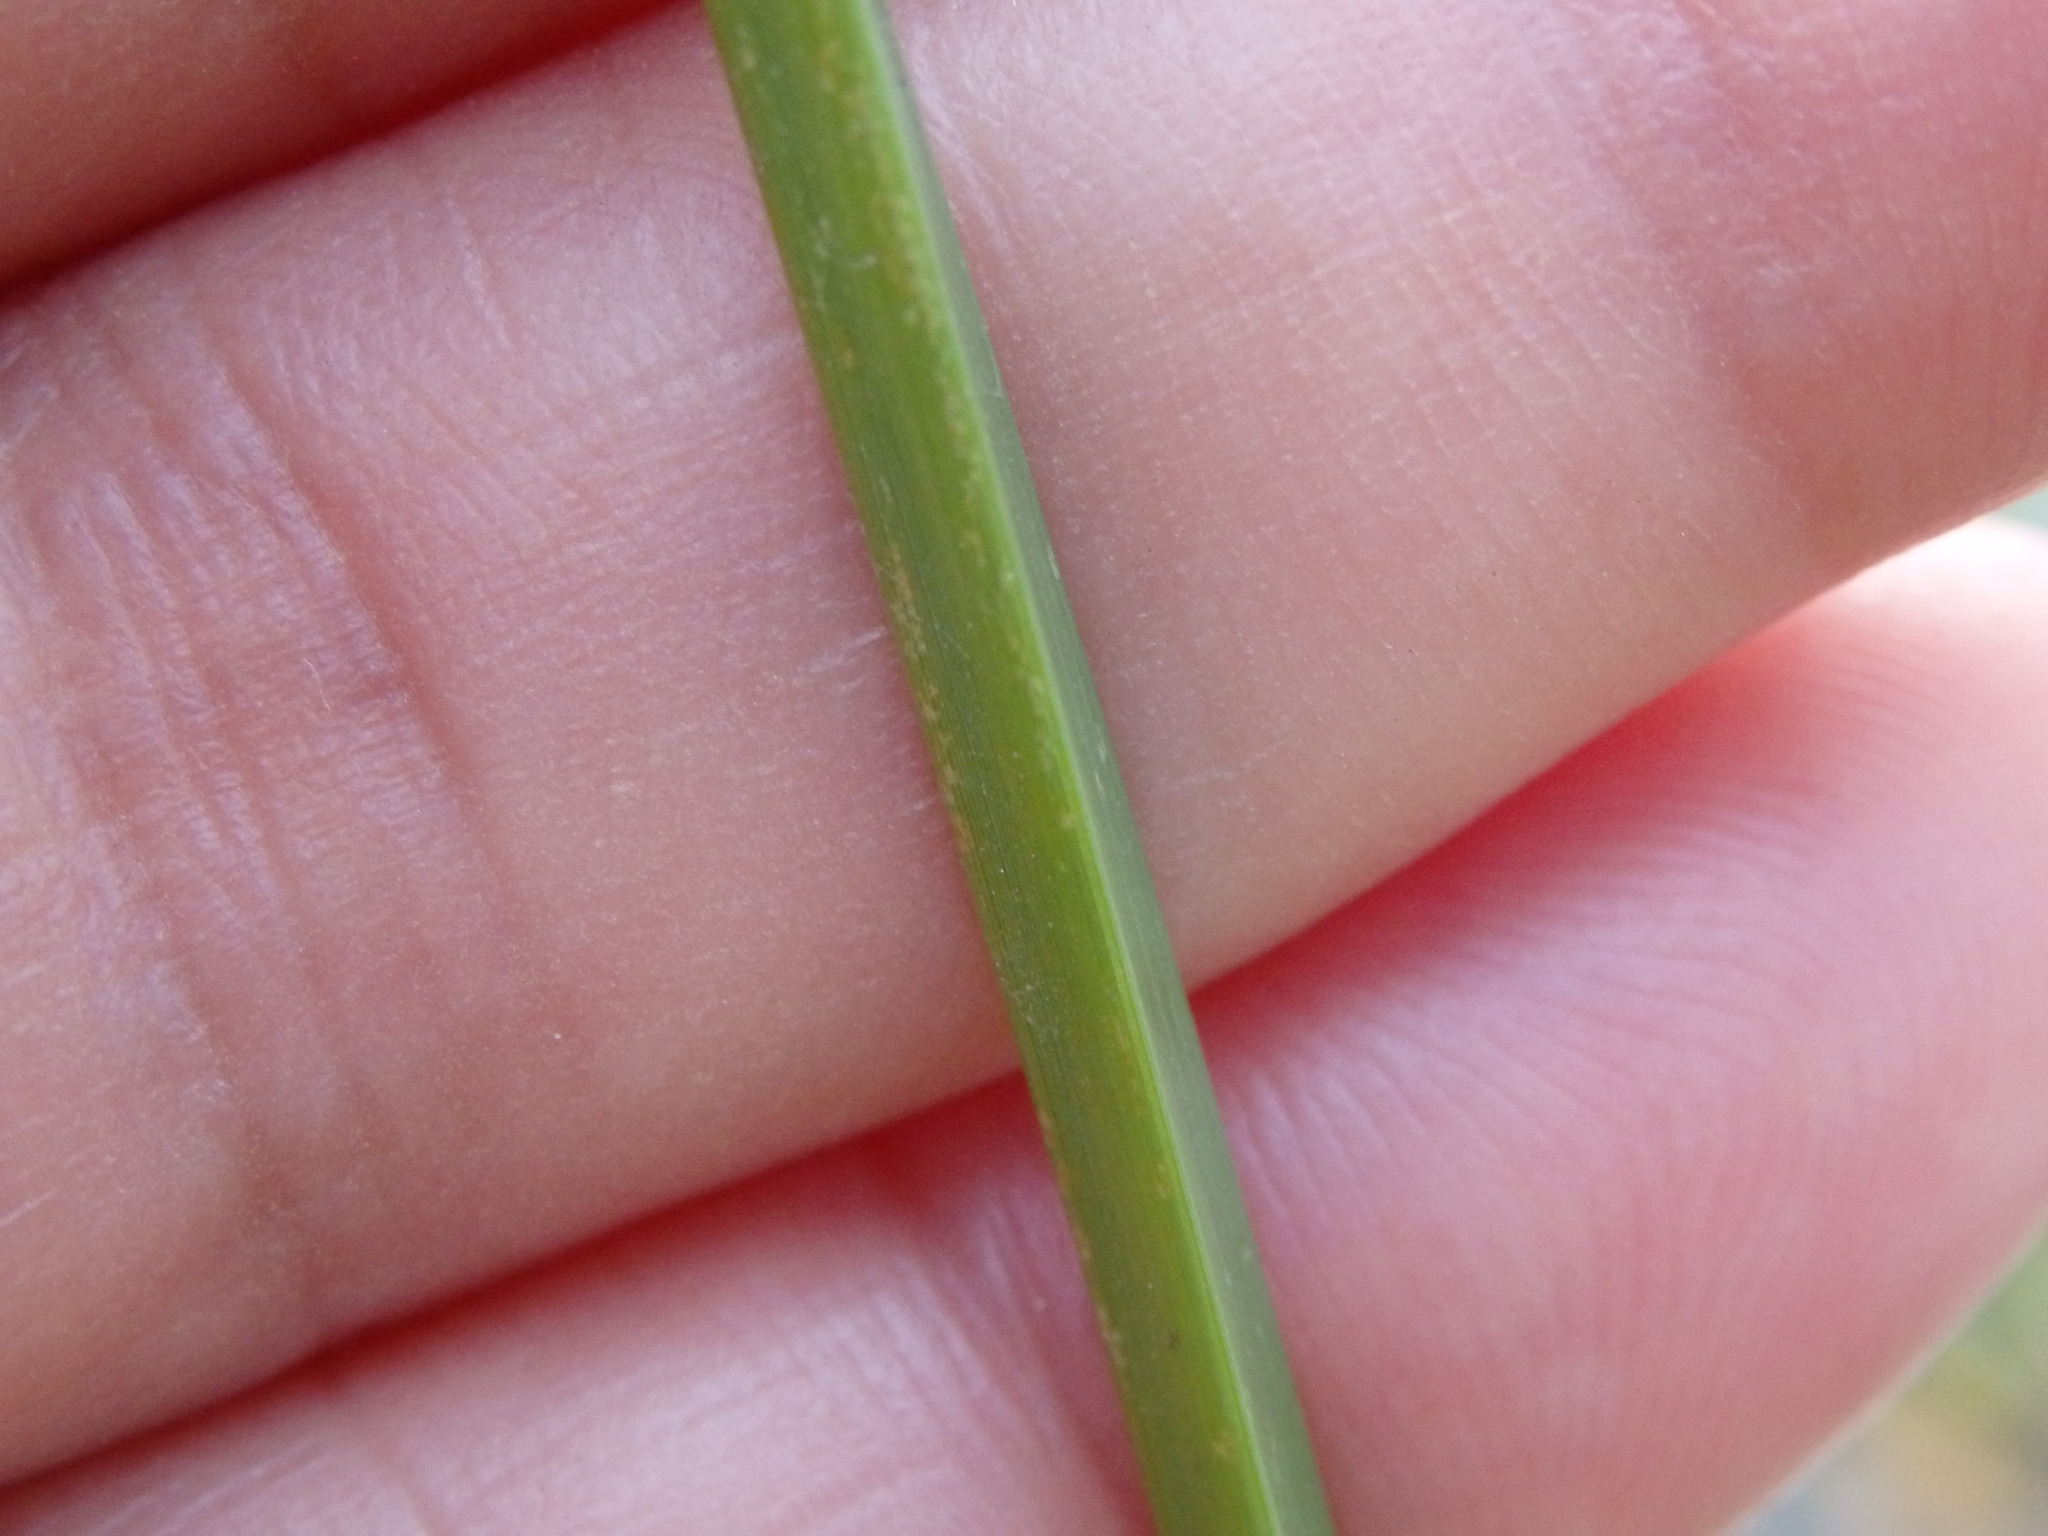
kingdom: Plantae
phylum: Tracheophyta
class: Liliopsida
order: Poales
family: Cyperaceae
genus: Cyperus
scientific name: Cyperus longus
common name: Galingale
